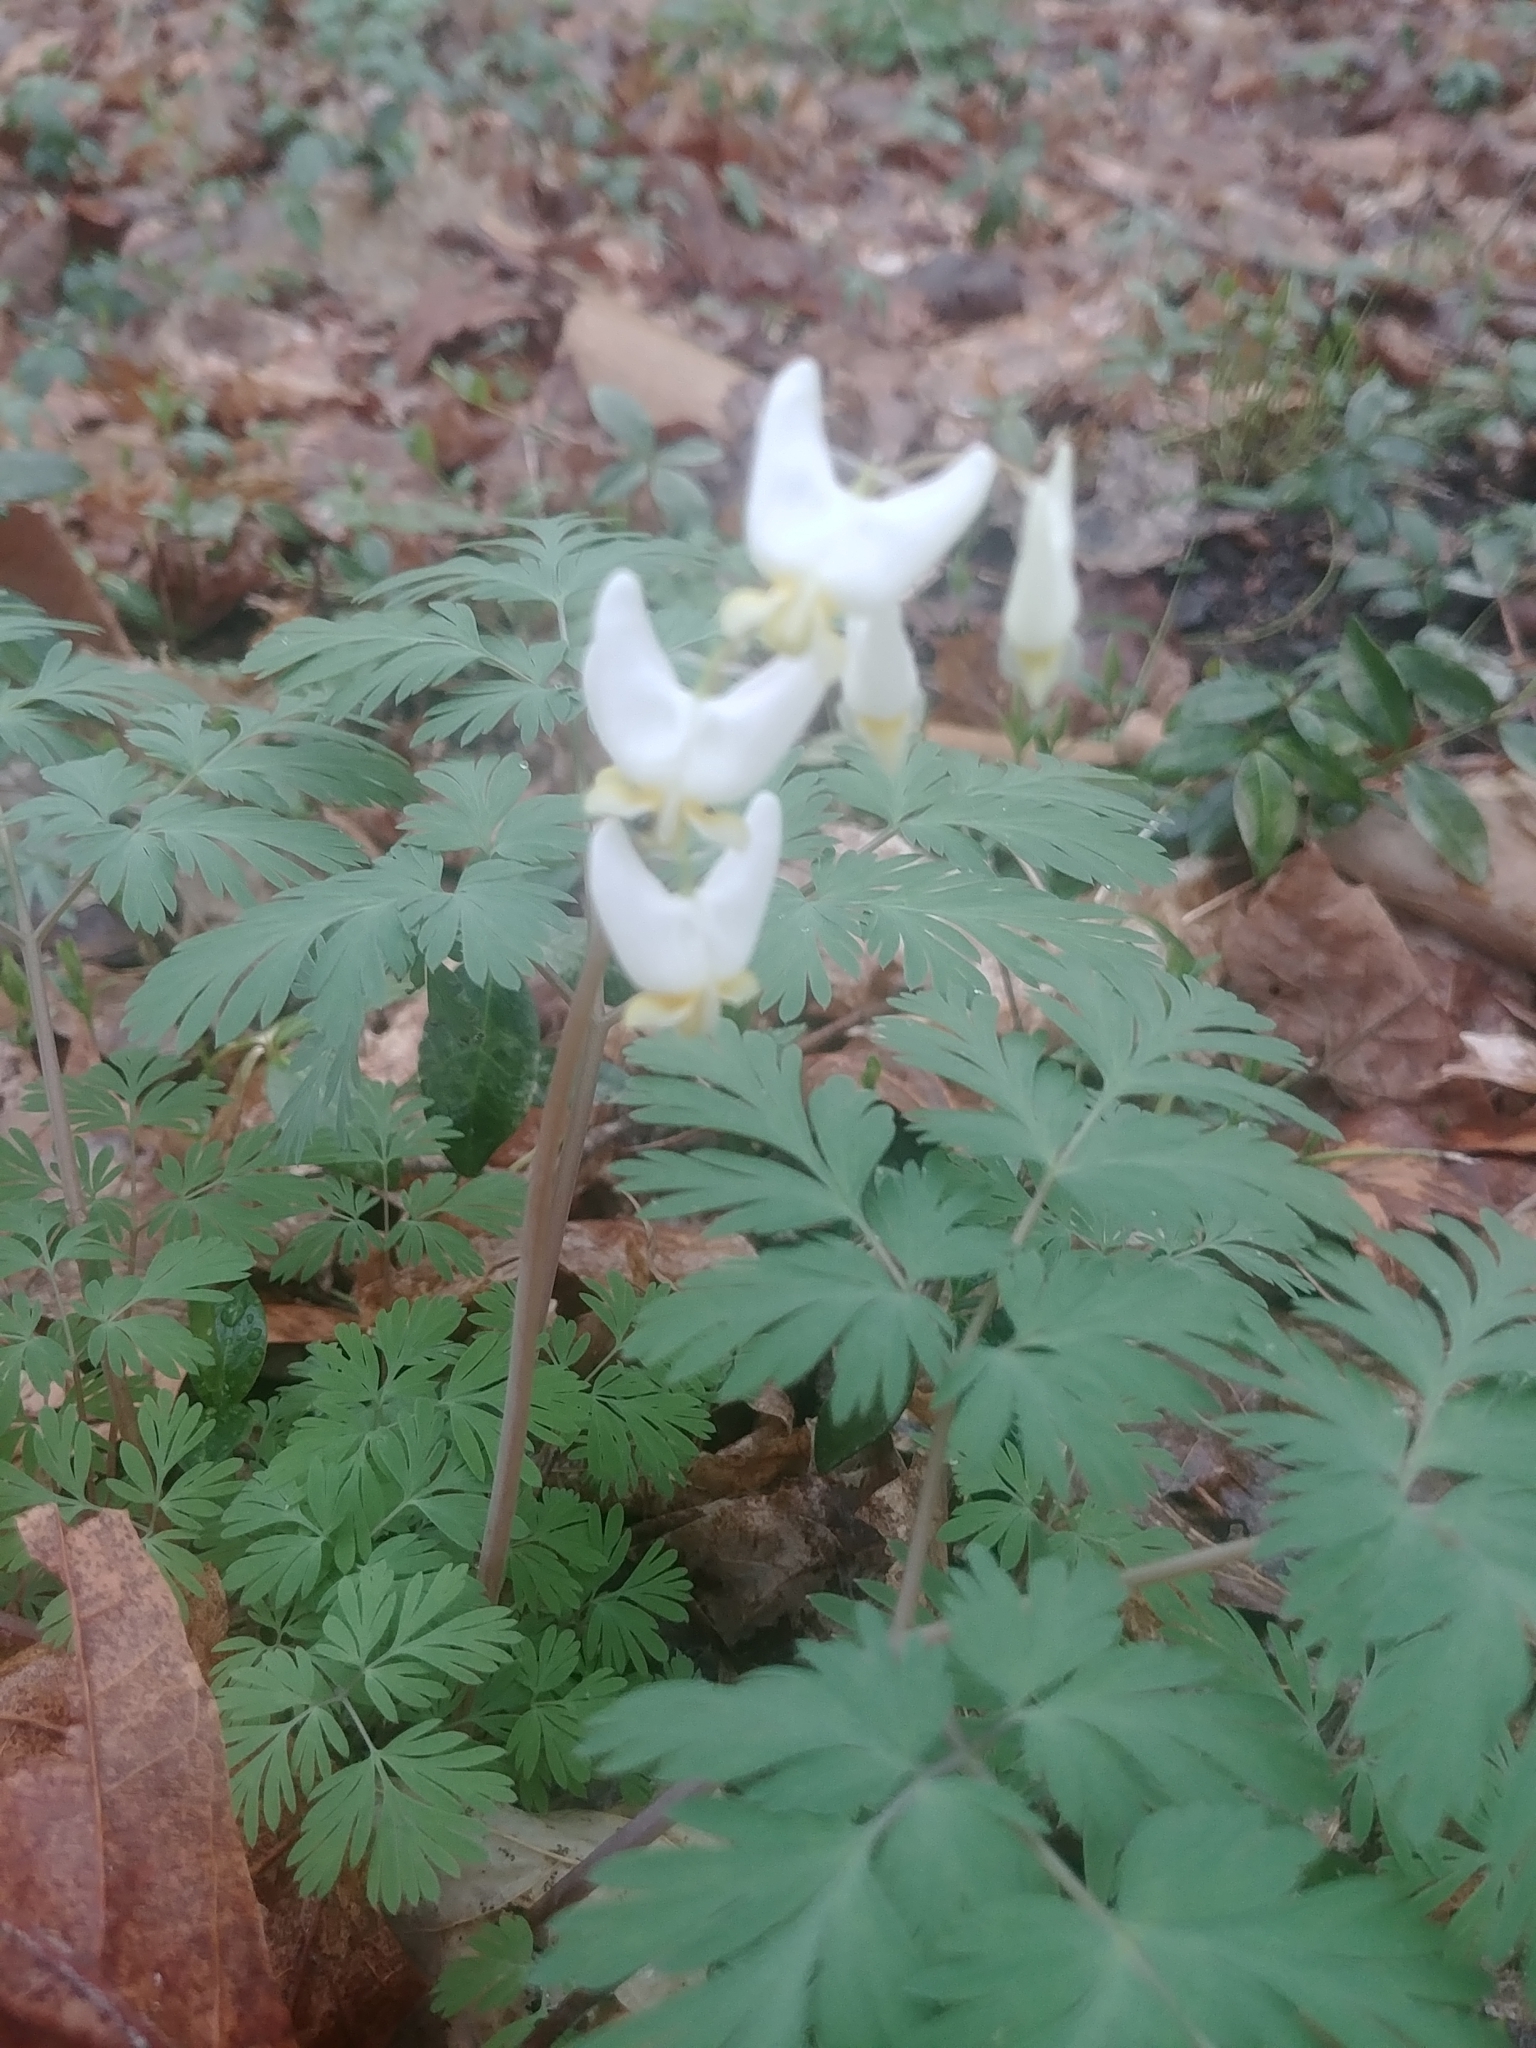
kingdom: Plantae
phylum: Tracheophyta
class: Magnoliopsida
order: Ranunculales
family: Papaveraceae
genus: Dicentra
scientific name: Dicentra cucullaria
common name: Dutchman's breeches
